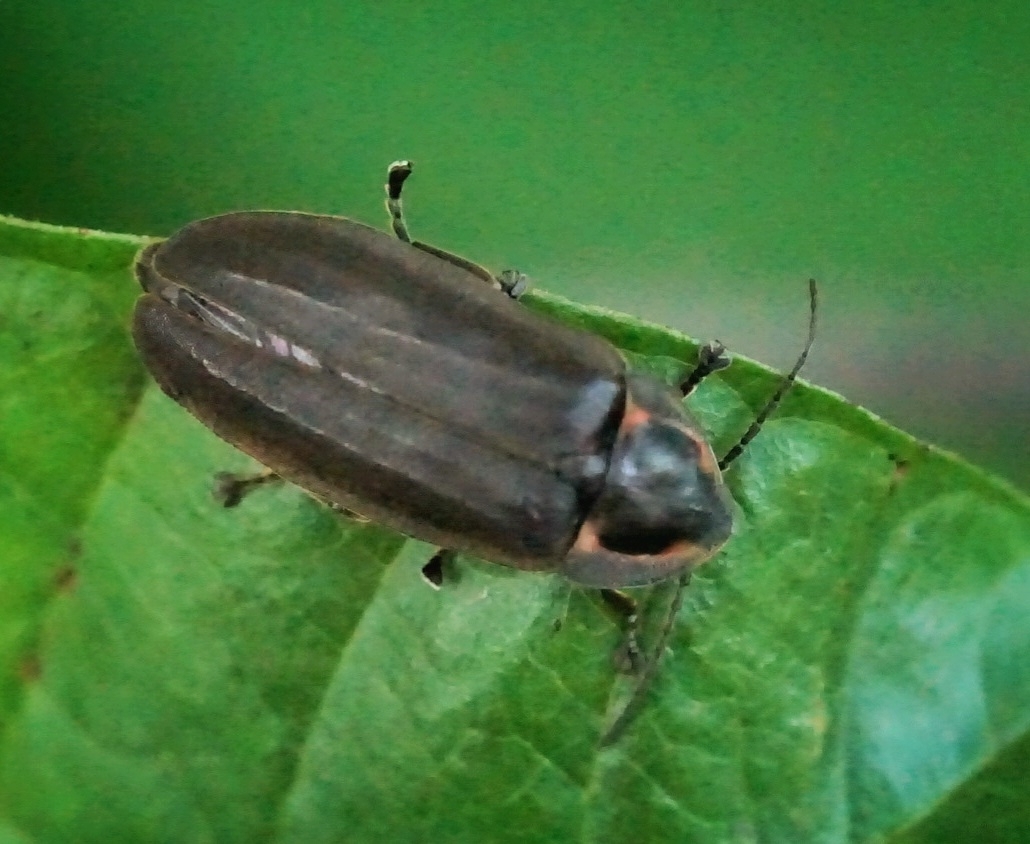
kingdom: Animalia
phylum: Arthropoda
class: Insecta
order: Coleoptera
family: Lampyridae
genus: Photinus
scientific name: Photinus corrusca
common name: Winter firefly
